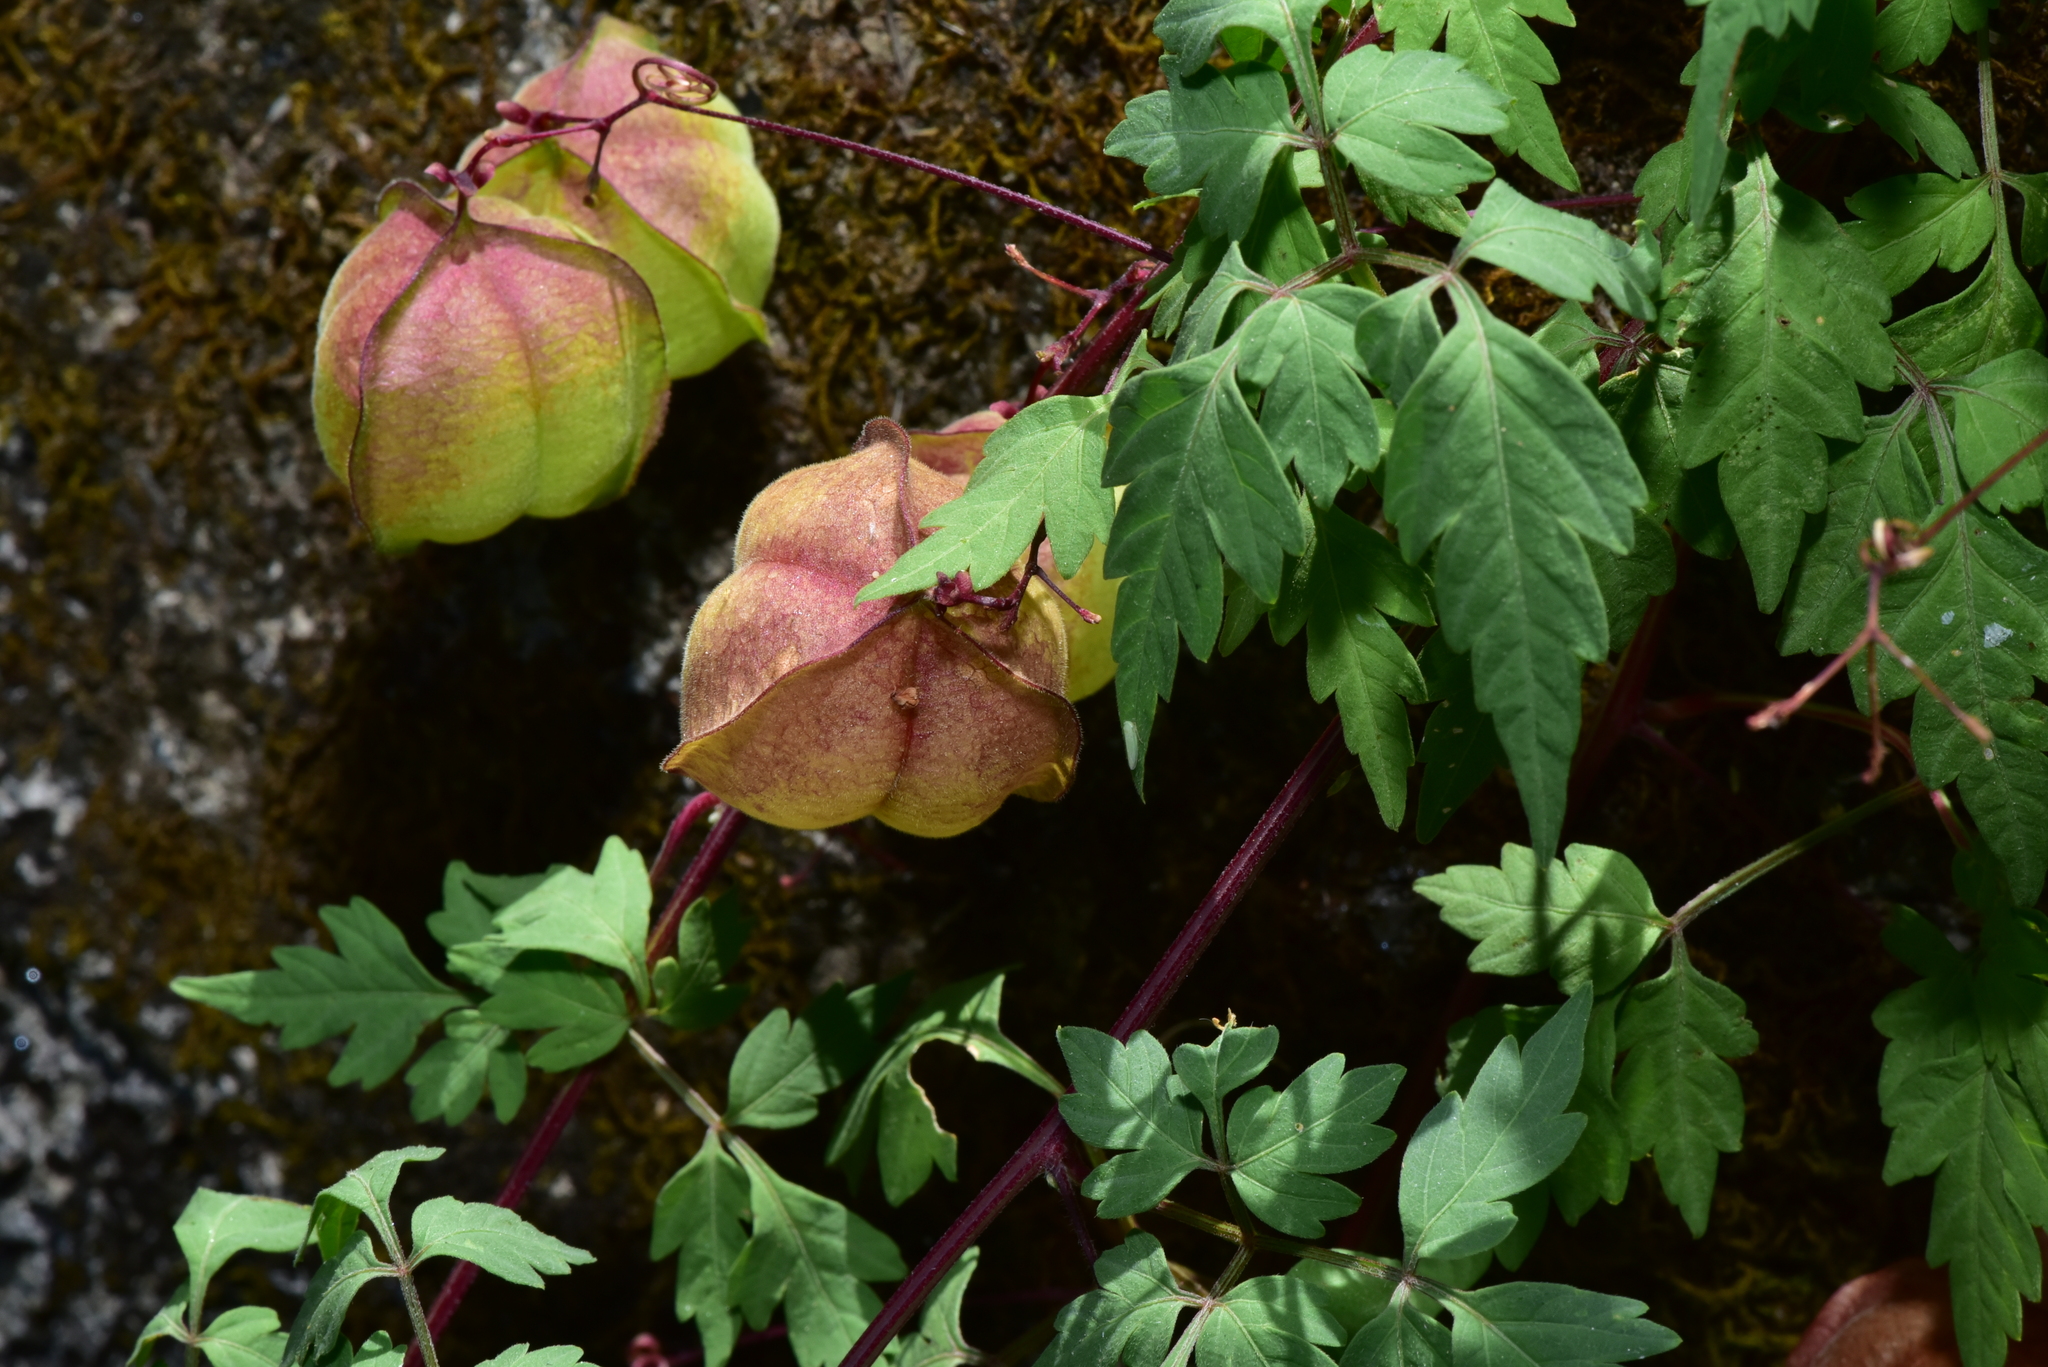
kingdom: Plantae
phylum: Tracheophyta
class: Magnoliopsida
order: Sapindales
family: Sapindaceae
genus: Cardiospermum
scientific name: Cardiospermum halicacabum
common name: Balloon vine
